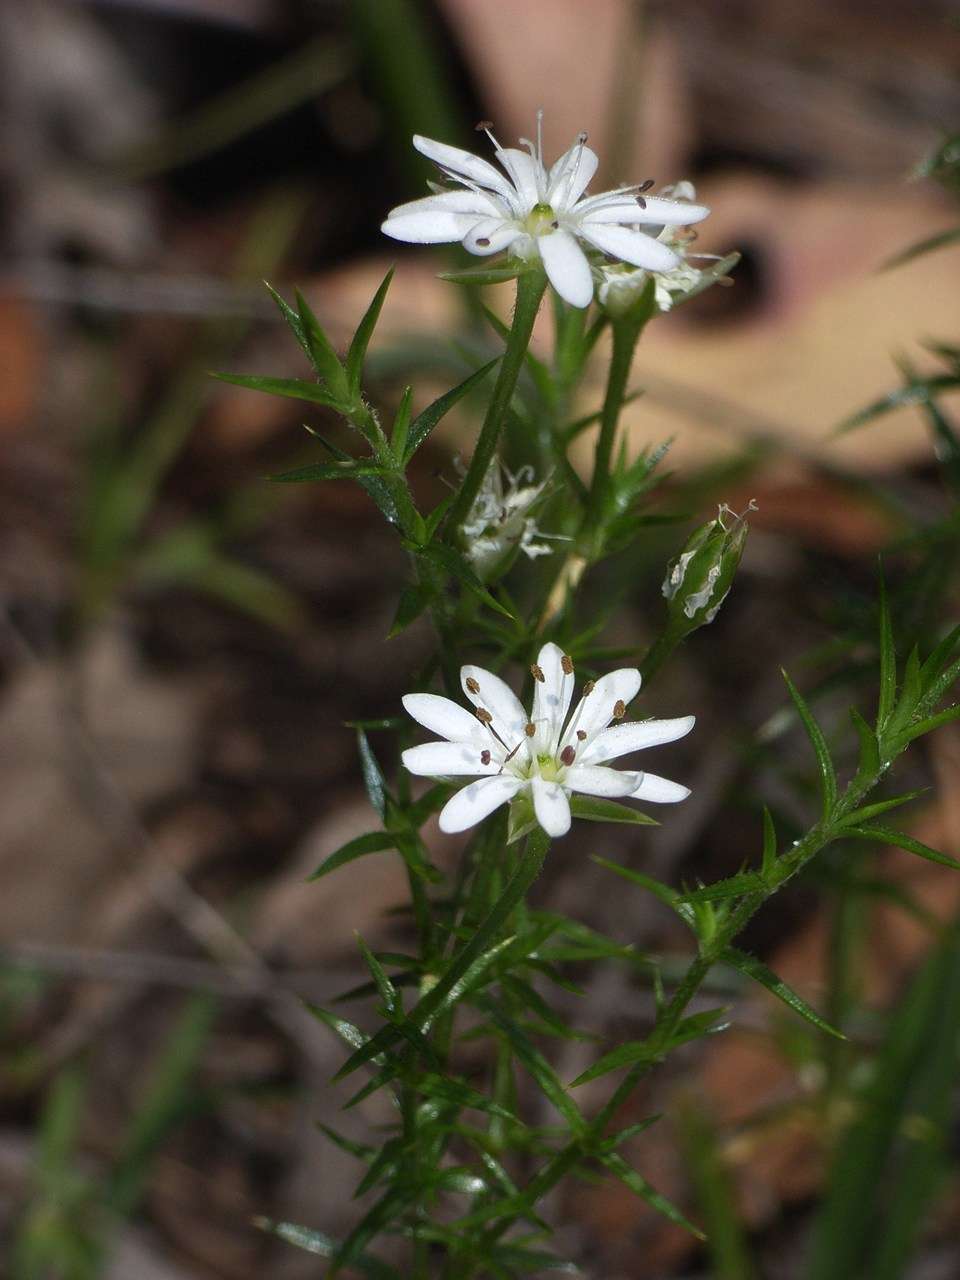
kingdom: Plantae
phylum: Tracheophyta
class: Magnoliopsida
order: Caryophyllales
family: Caryophyllaceae
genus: Stellaria
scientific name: Stellaria pungens
